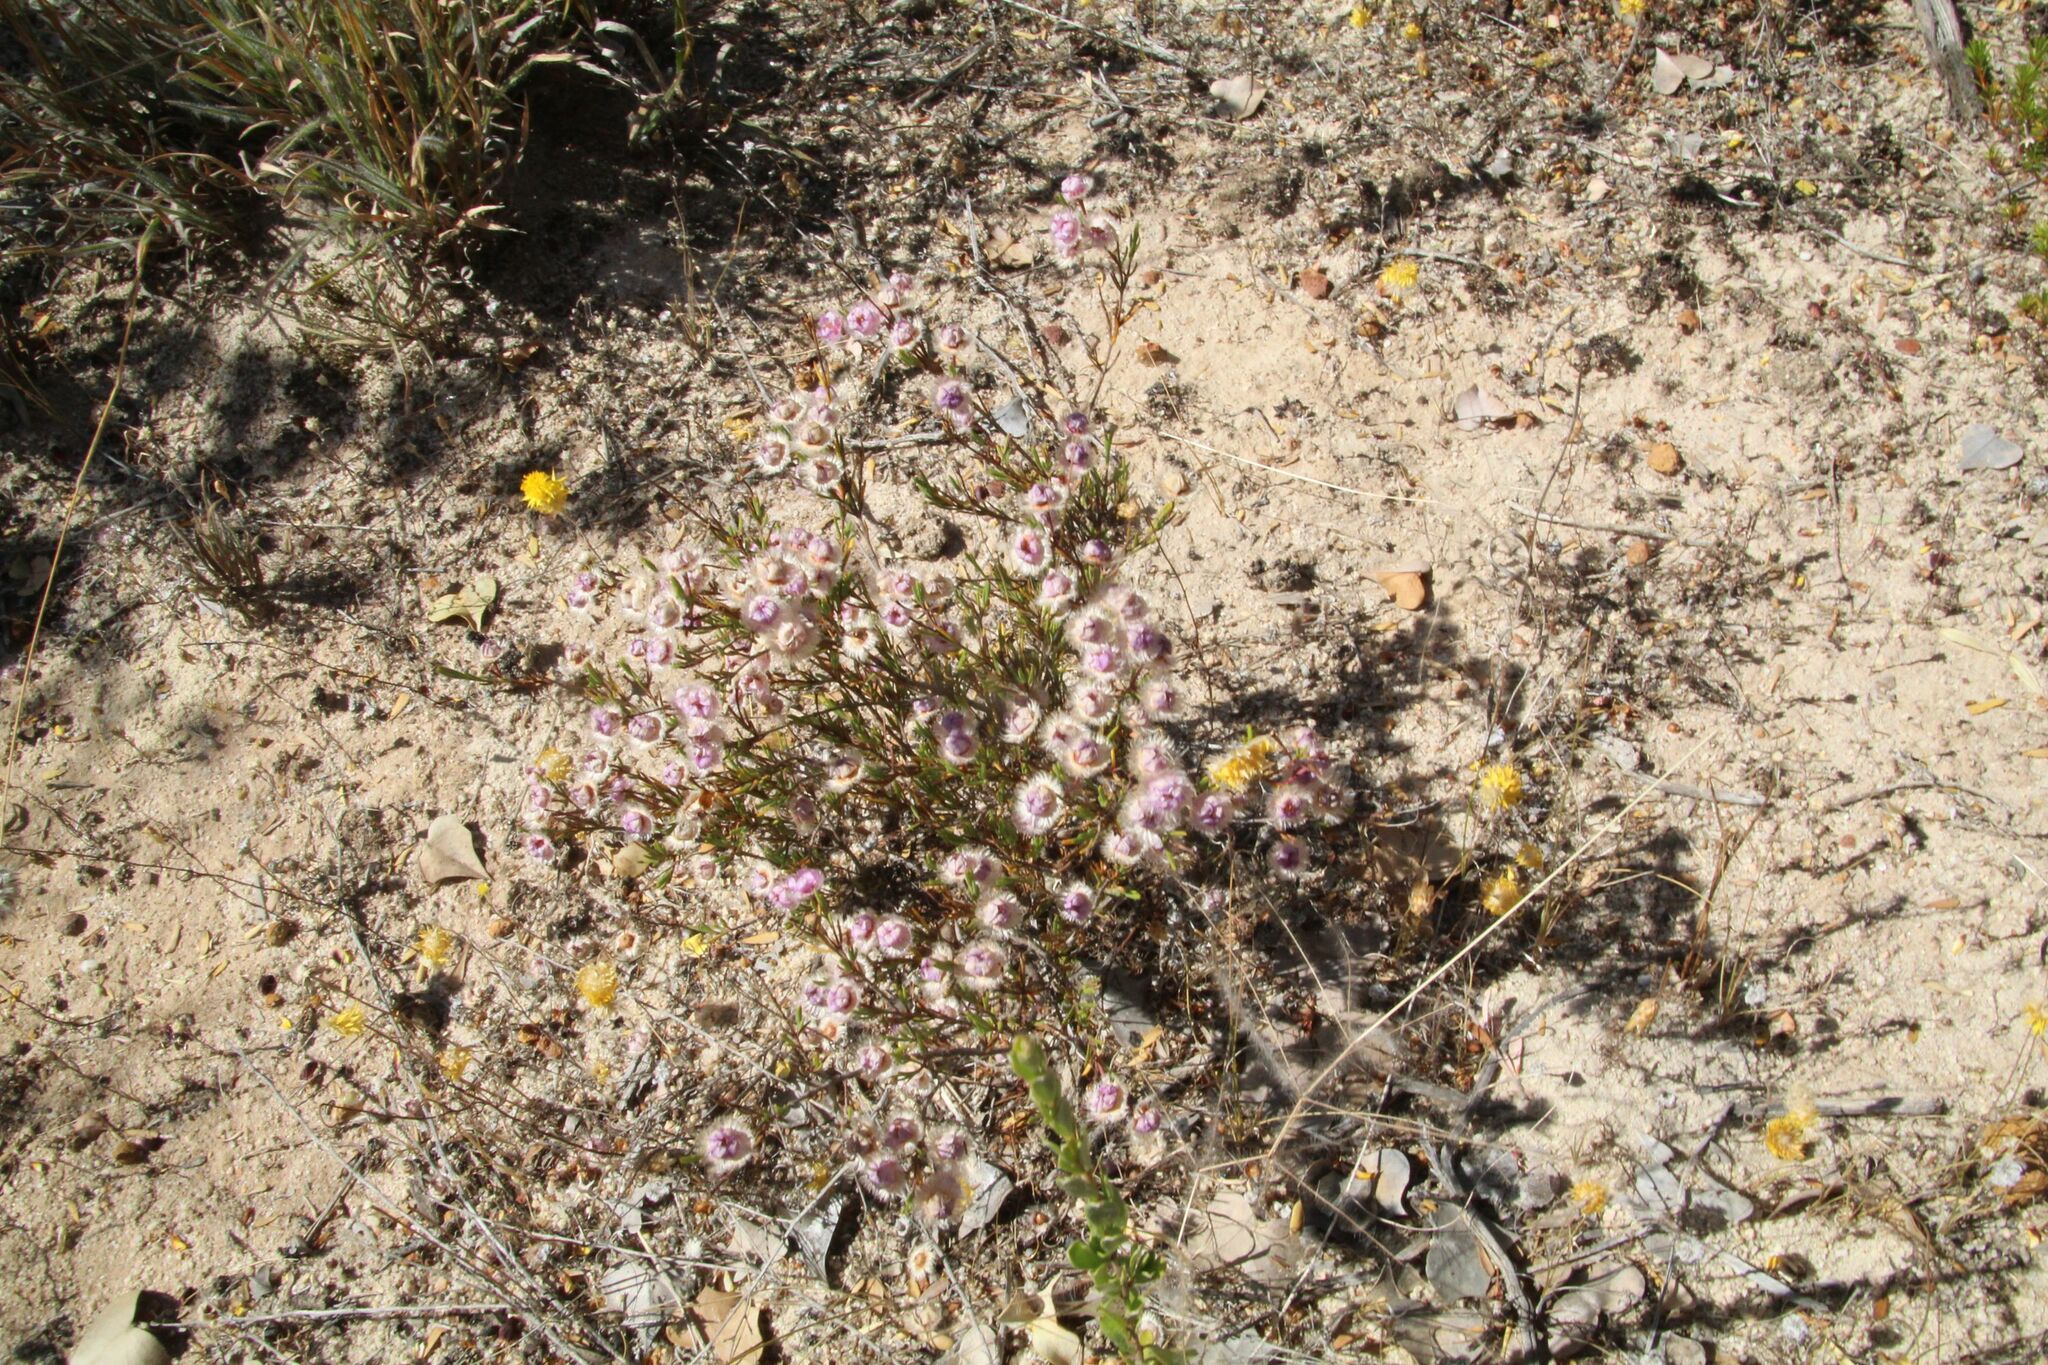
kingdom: Plantae
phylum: Tracheophyta
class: Magnoliopsida
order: Myrtales
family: Myrtaceae
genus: Verticordia
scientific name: Verticordia picta
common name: Painted feather-flower
